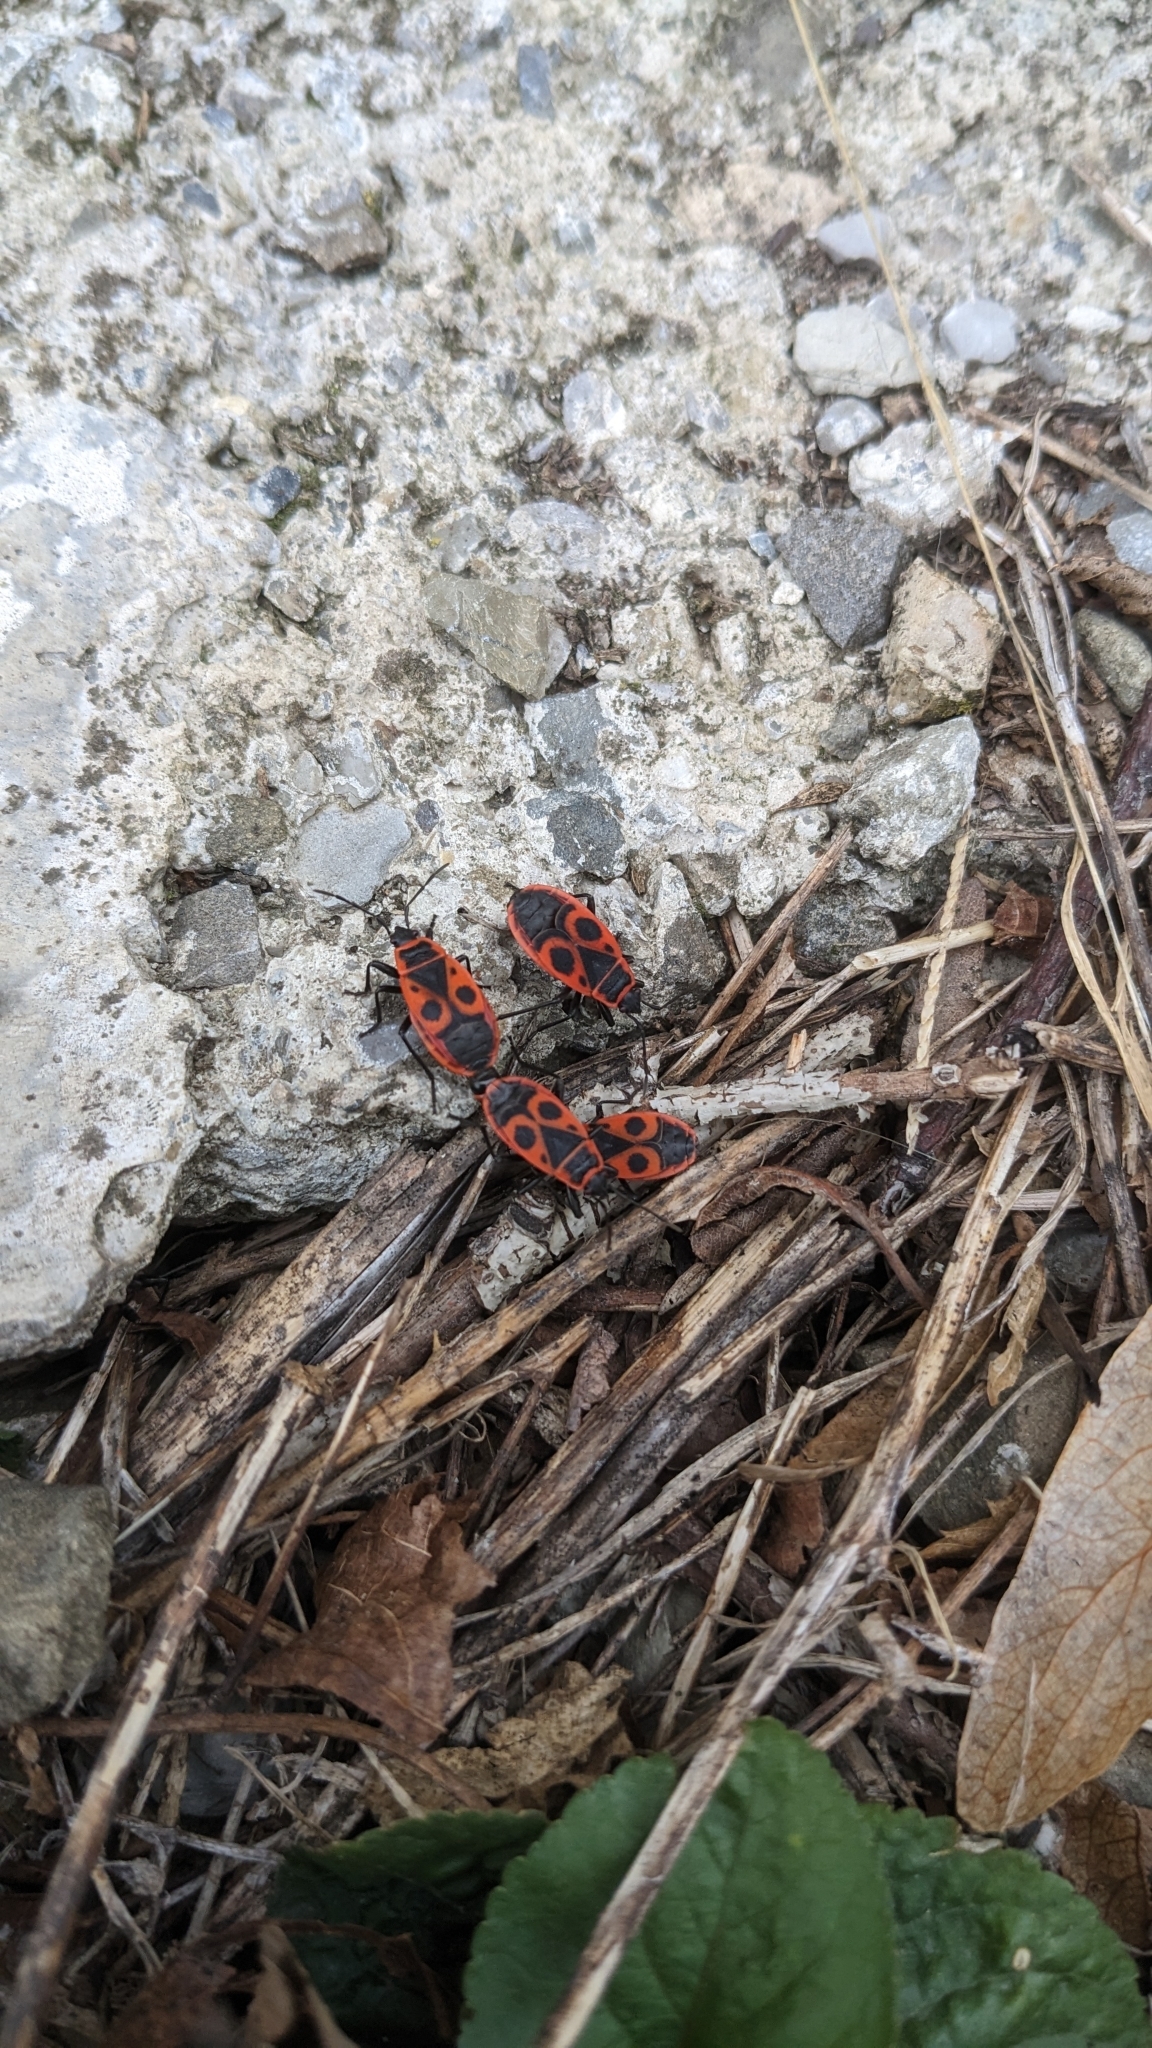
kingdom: Animalia
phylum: Arthropoda
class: Insecta
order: Hemiptera
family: Pyrrhocoridae
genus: Pyrrhocoris
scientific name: Pyrrhocoris apterus
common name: Firebug
